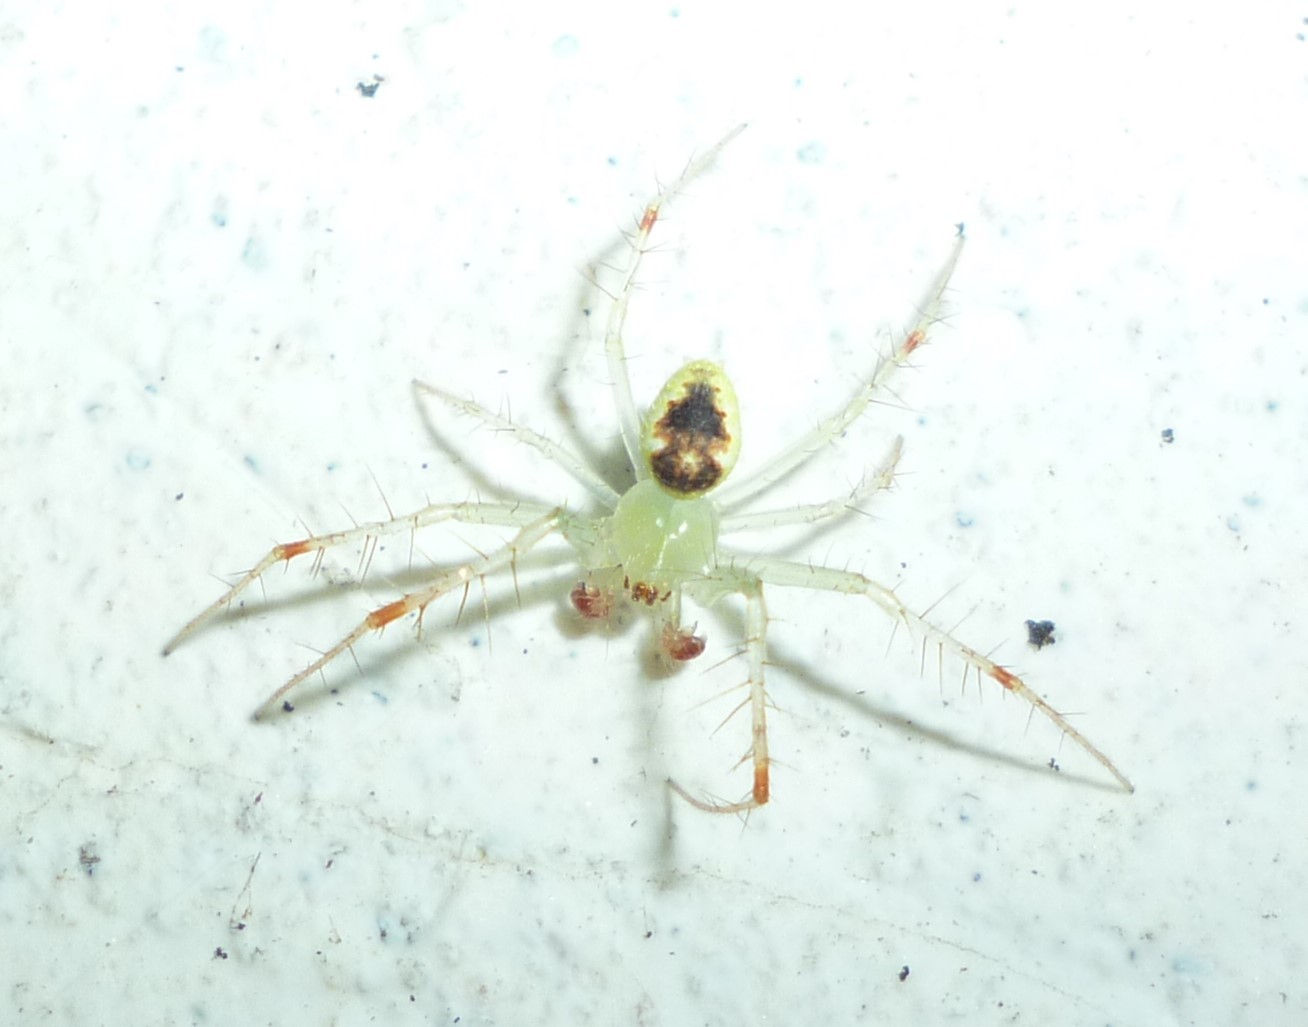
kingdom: Animalia
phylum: Arthropoda
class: Arachnida
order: Araneae
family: Araneidae
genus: Araneus
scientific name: Araneus niveus
